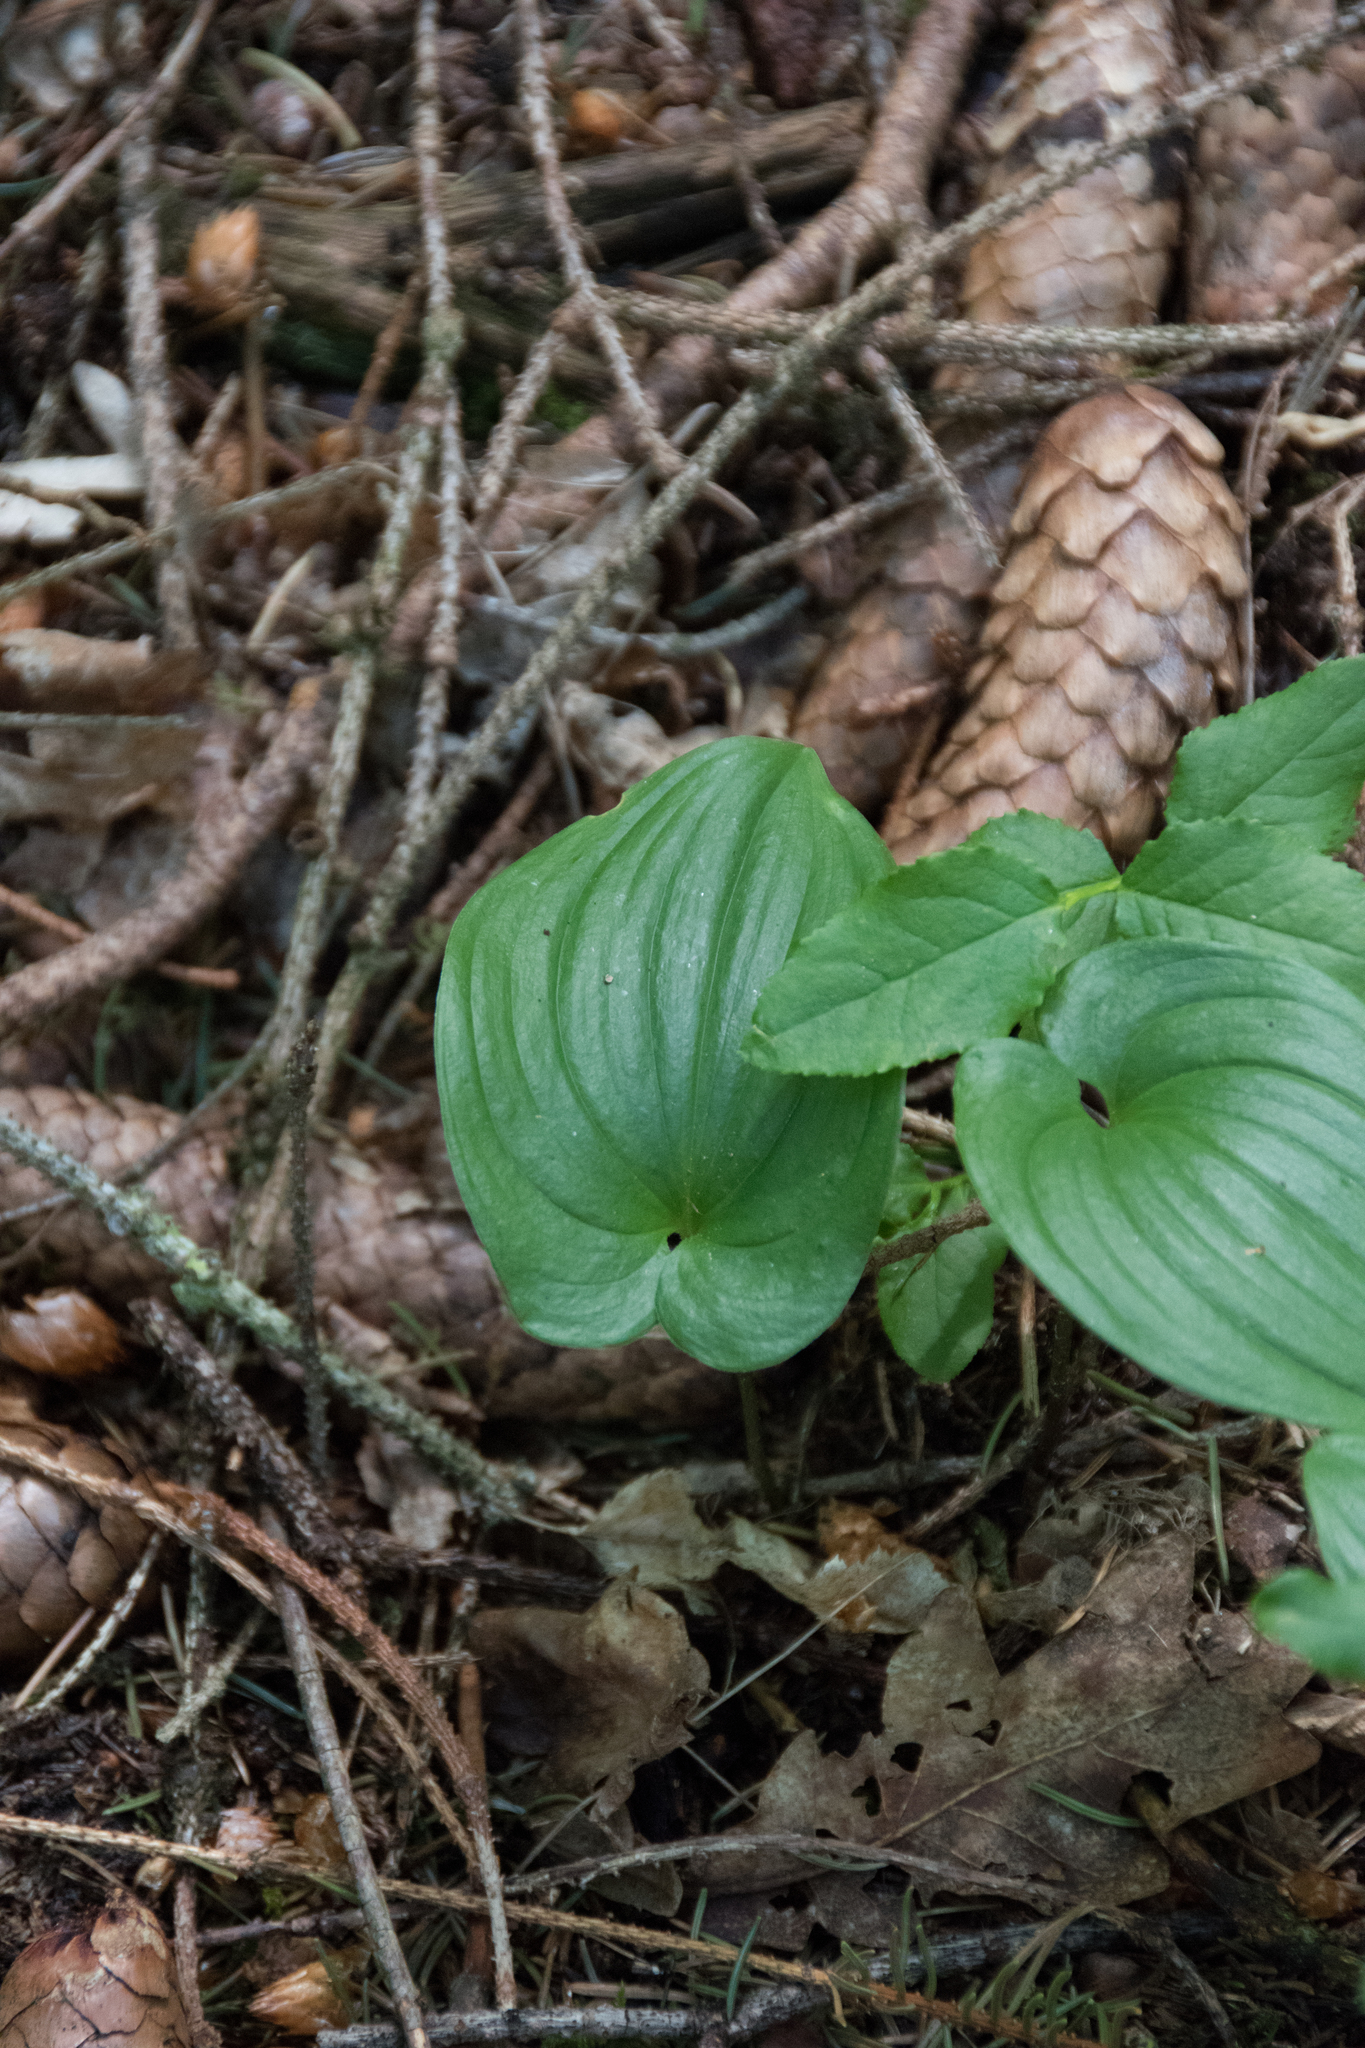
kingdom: Plantae
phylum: Tracheophyta
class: Liliopsida
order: Asparagales
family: Asparagaceae
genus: Maianthemum
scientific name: Maianthemum bifolium
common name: May lily
